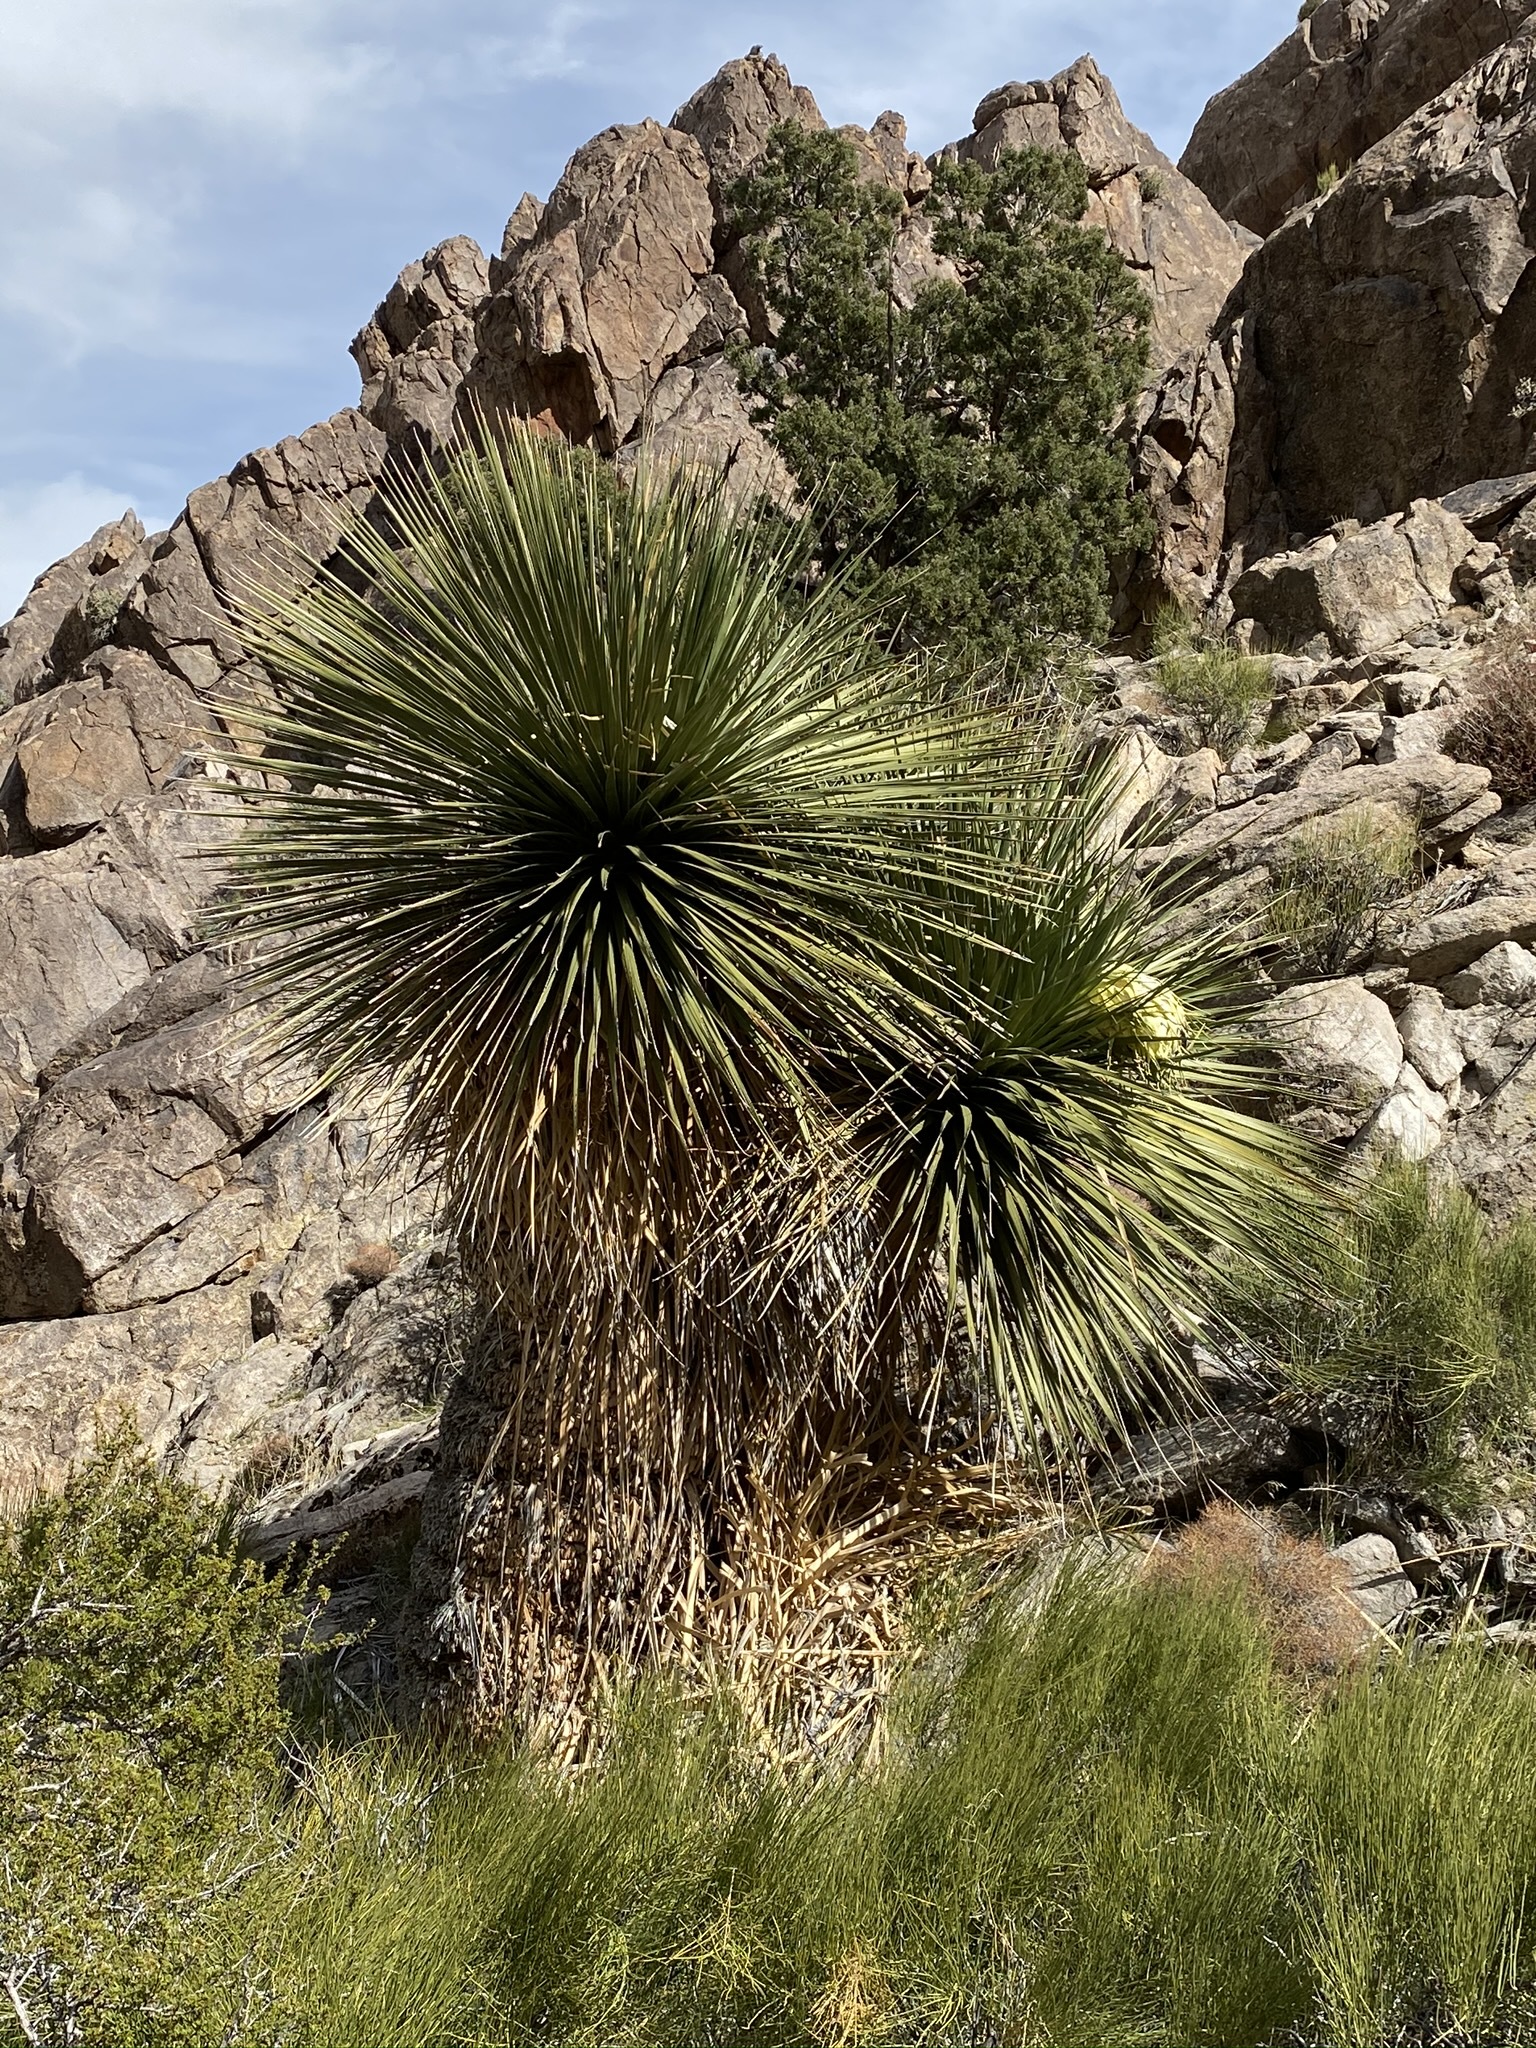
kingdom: Plantae
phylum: Tracheophyta
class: Liliopsida
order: Asparagales
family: Asparagaceae
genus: Nolina
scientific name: Nolina parryi
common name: Parry nolina
